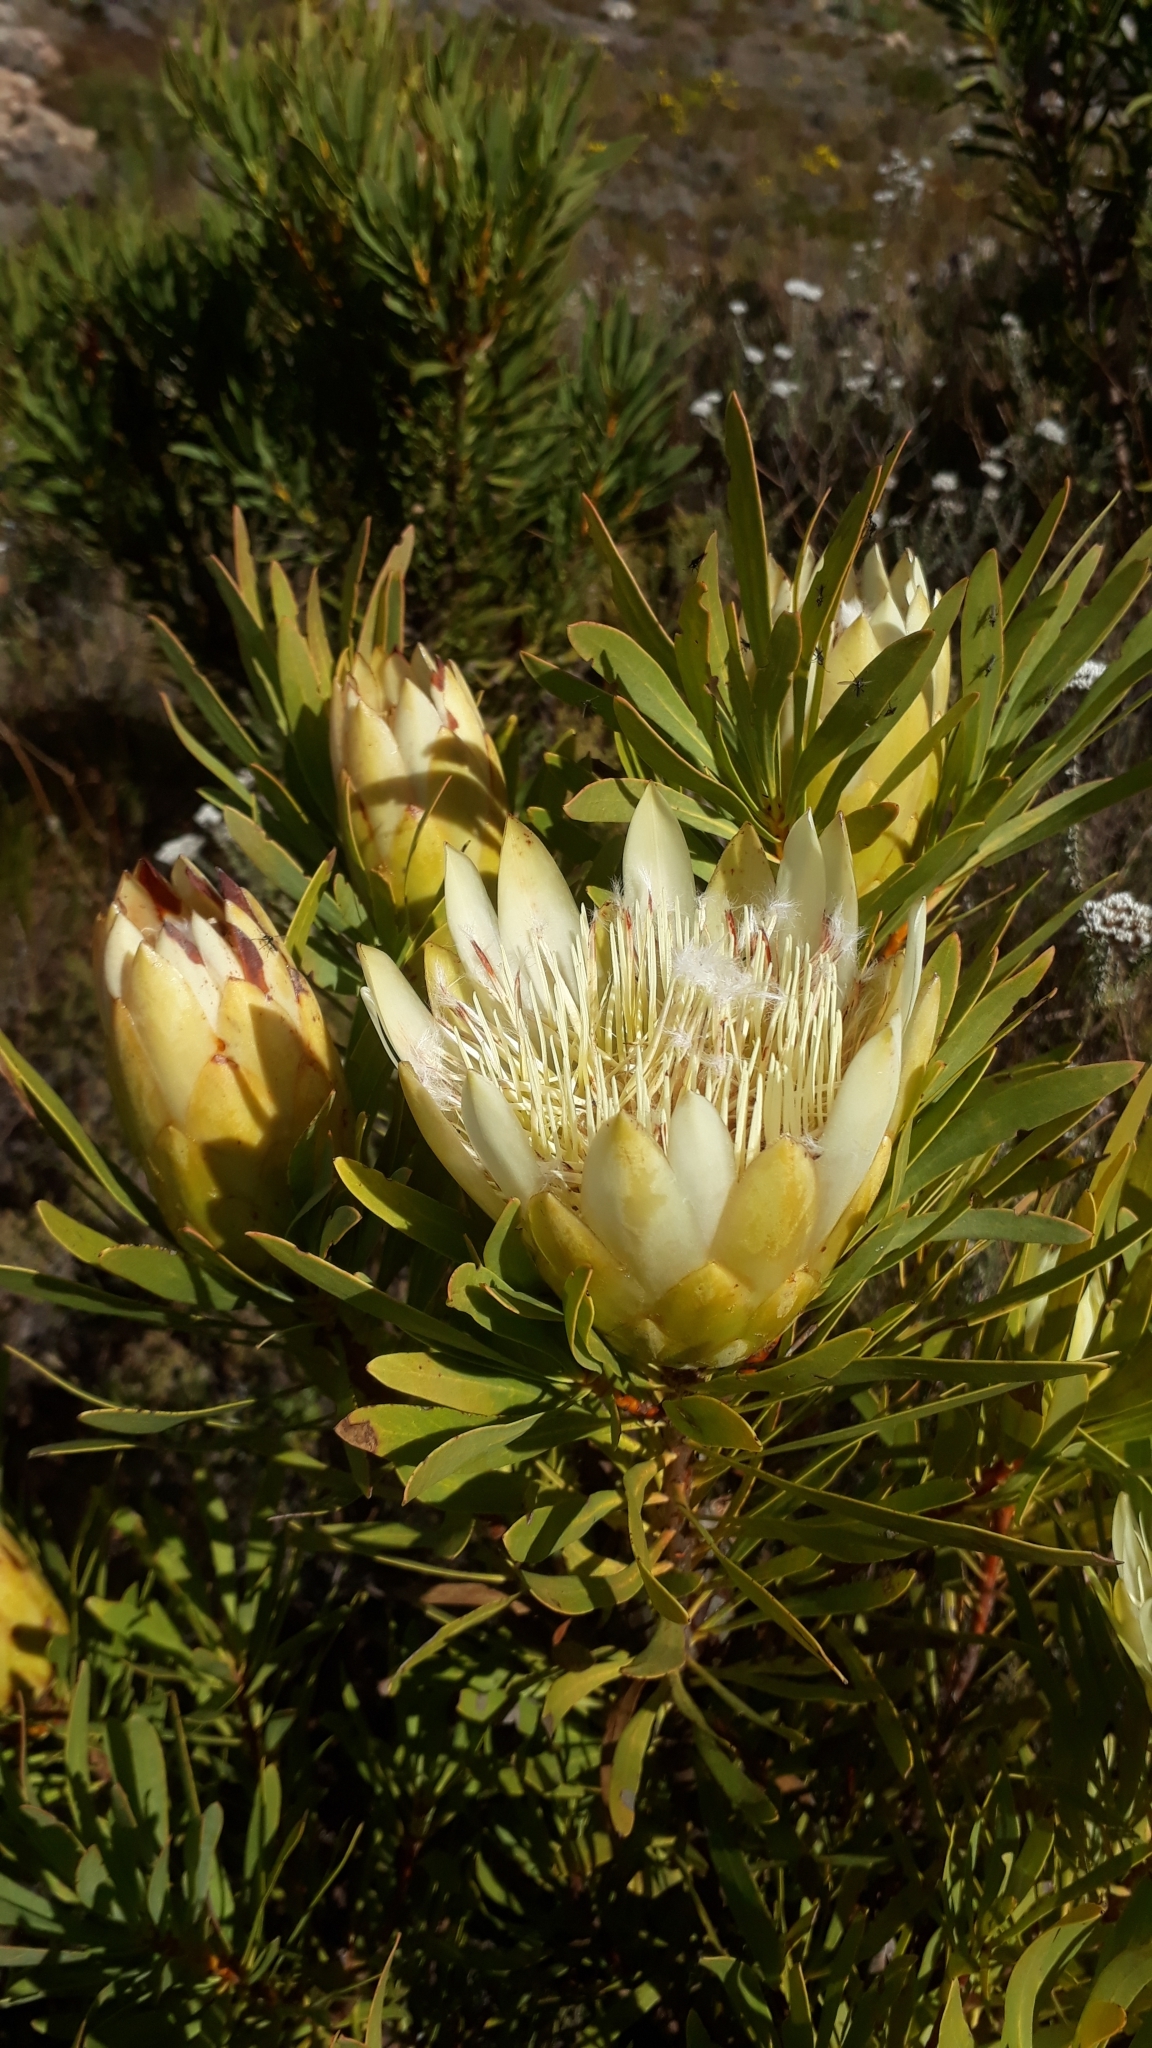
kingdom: Plantae
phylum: Tracheophyta
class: Magnoliopsida
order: Proteales
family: Proteaceae
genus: Protea
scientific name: Protea repens
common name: Sugarbush
